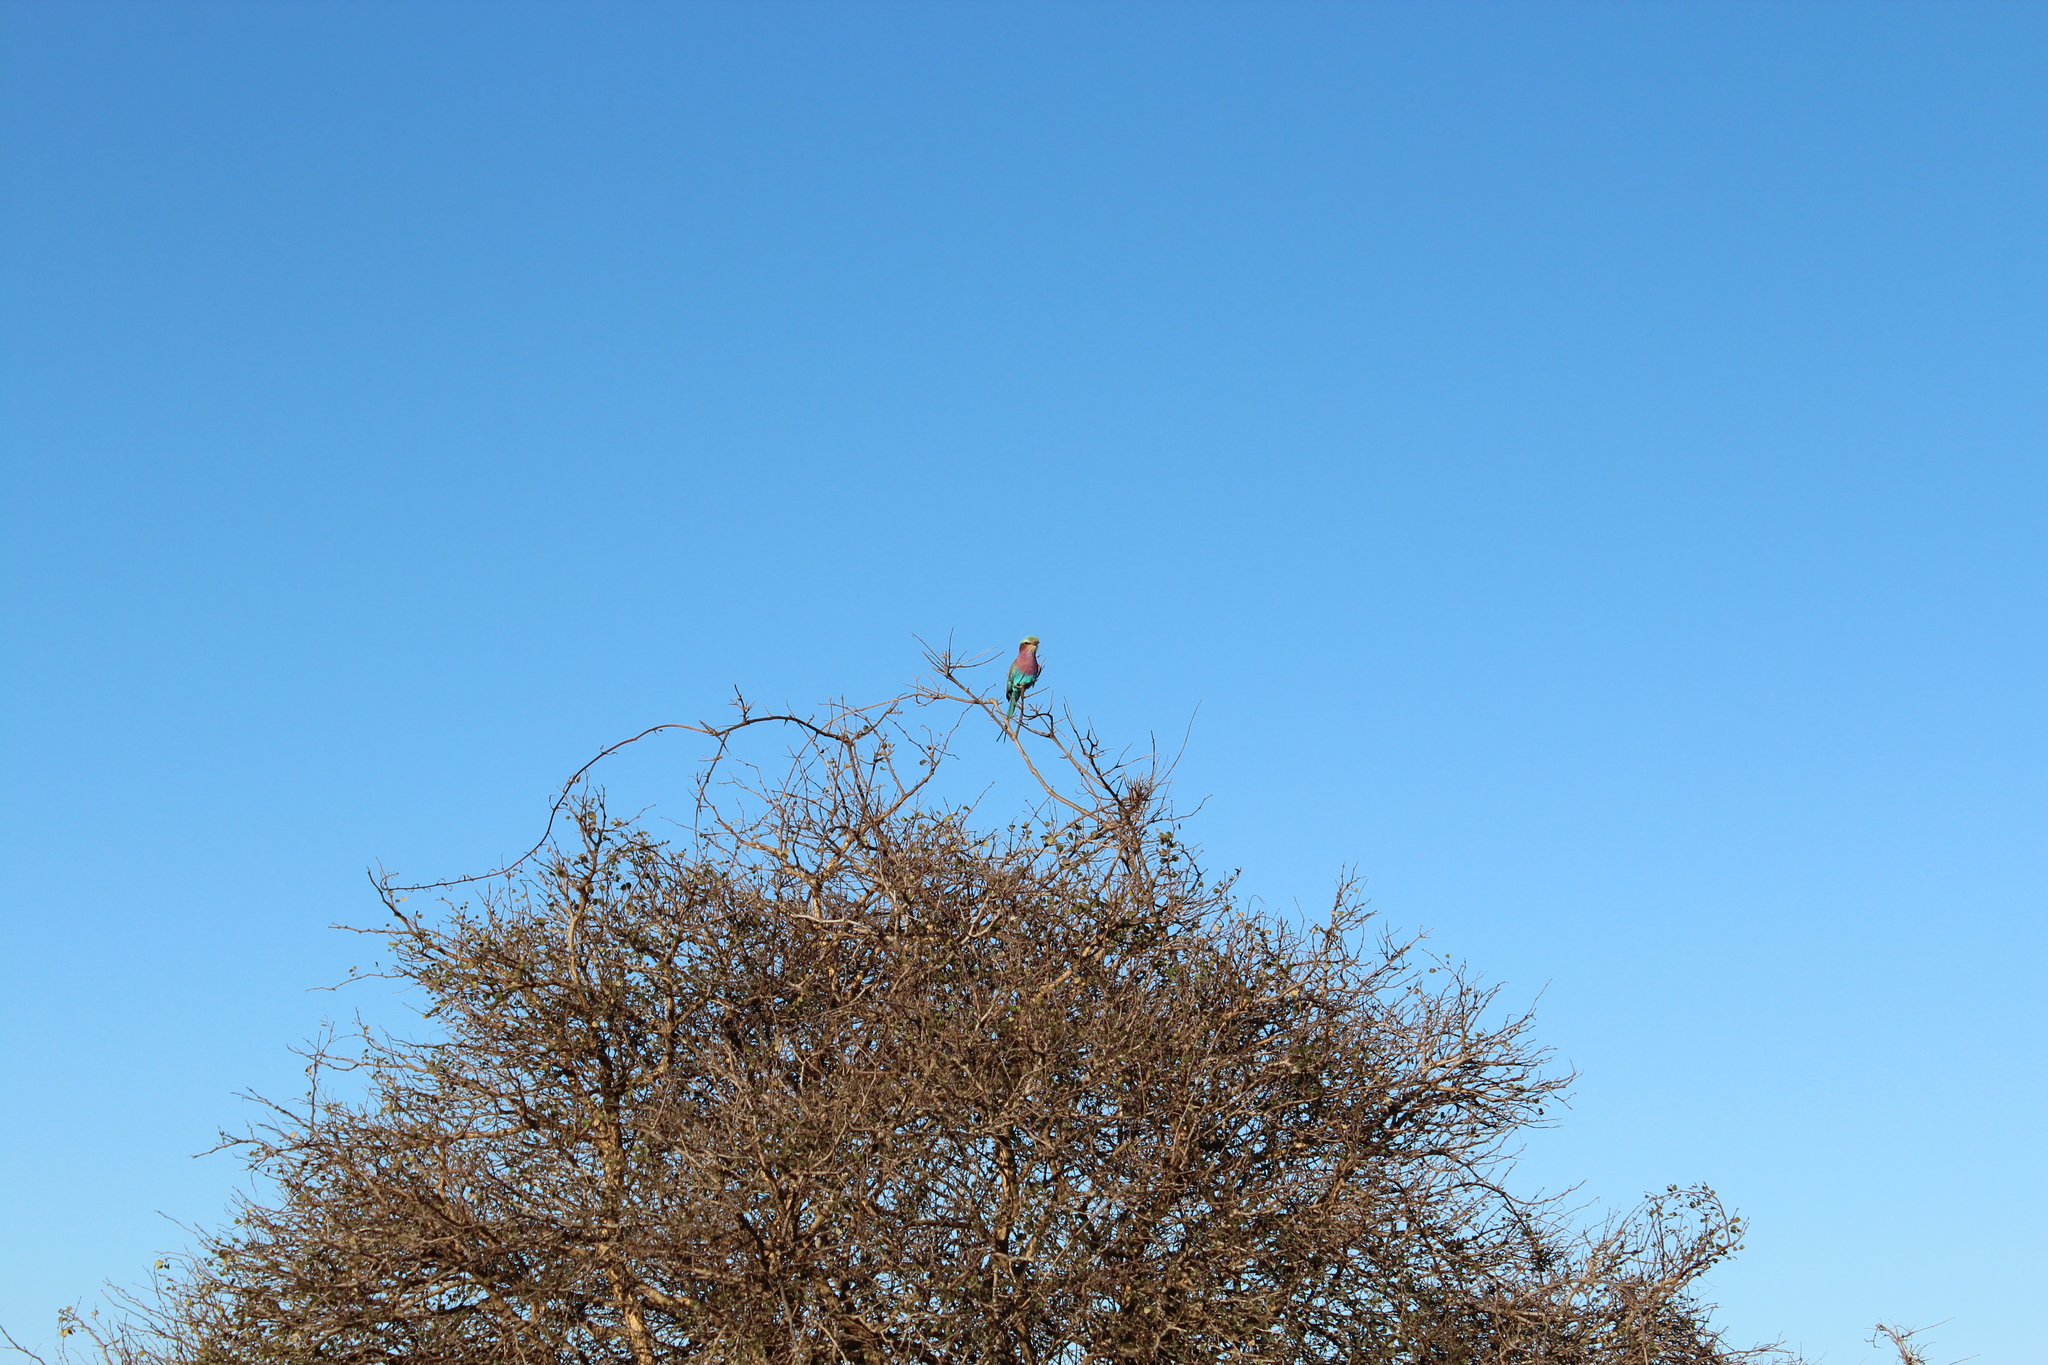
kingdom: Animalia
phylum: Chordata
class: Aves
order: Coraciiformes
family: Coraciidae
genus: Coracias
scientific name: Coracias caudatus
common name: Lilac-breasted roller
